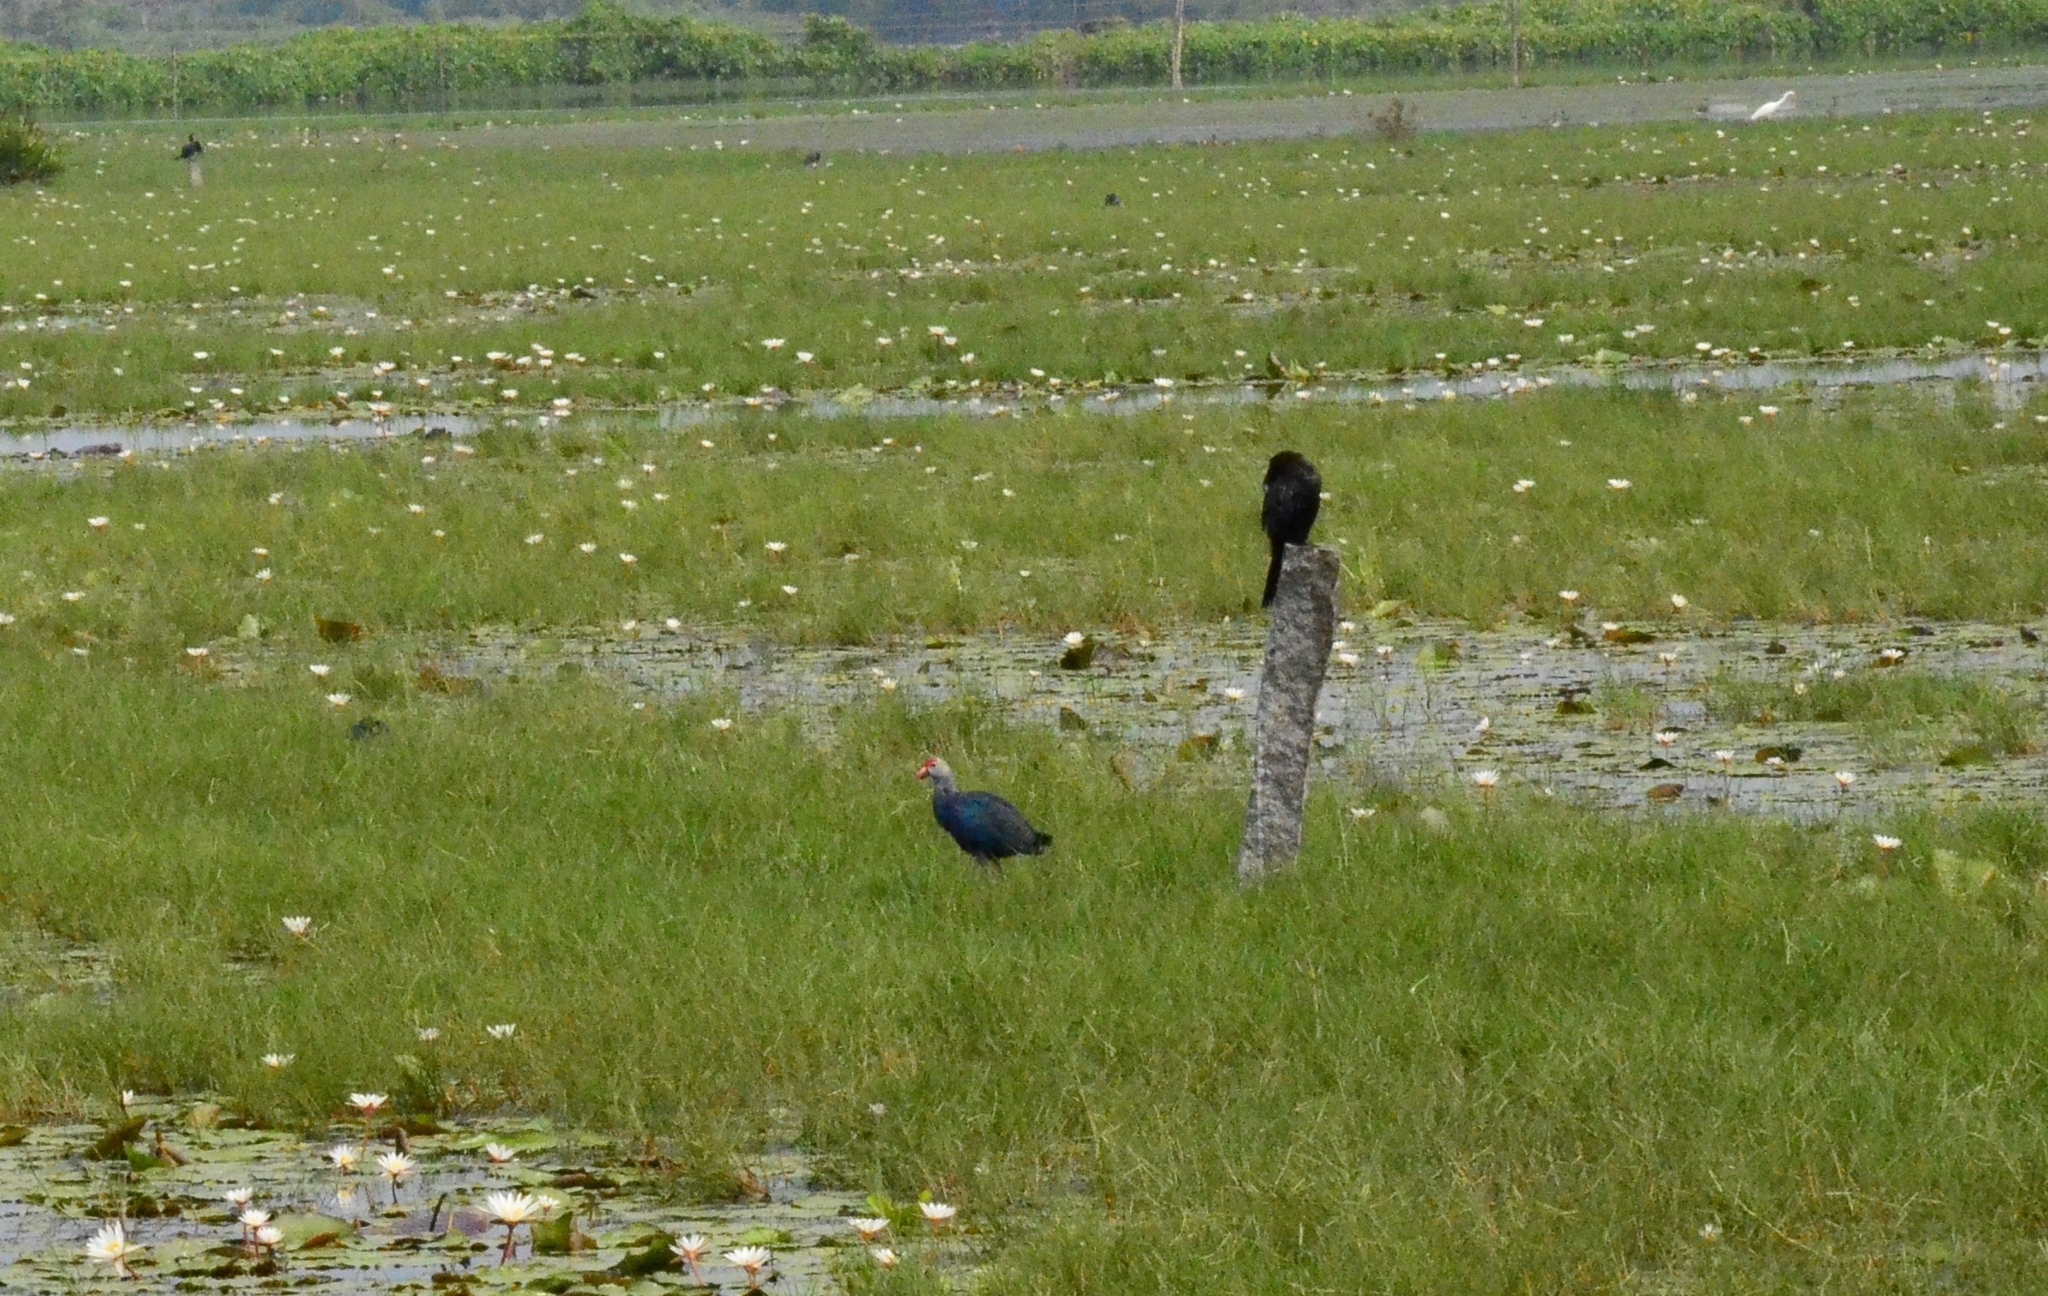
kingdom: Animalia
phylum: Chordata
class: Aves
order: Gruiformes
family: Rallidae
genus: Porphyrio
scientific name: Porphyrio porphyrio
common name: Purple swamphen
